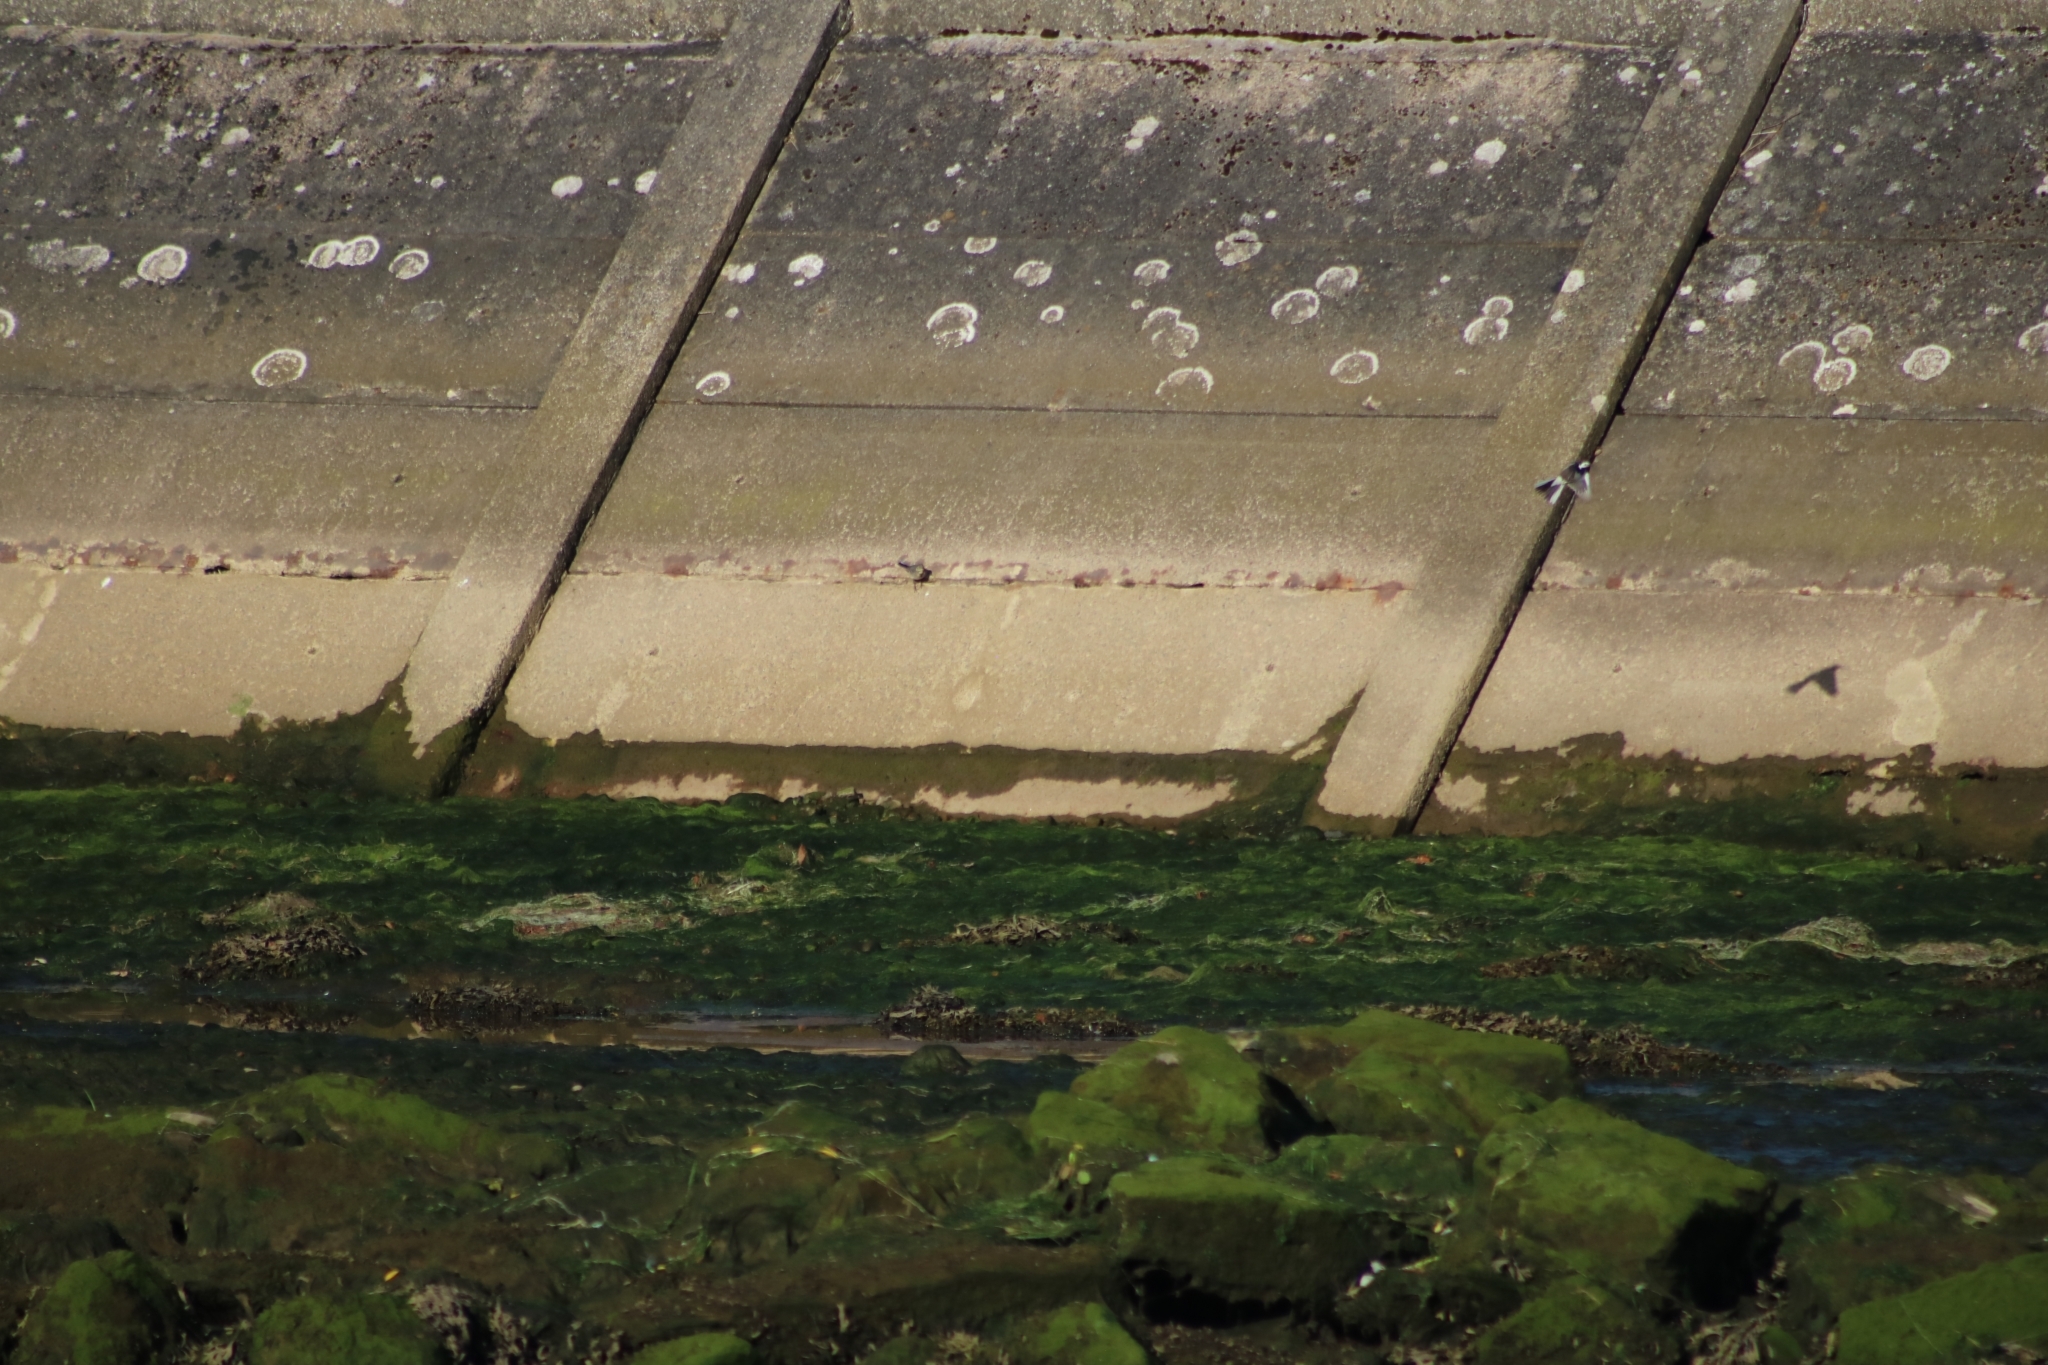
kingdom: Animalia
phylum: Chordata
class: Aves
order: Passeriformes
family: Motacillidae
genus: Motacilla
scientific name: Motacilla alba
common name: White wagtail
